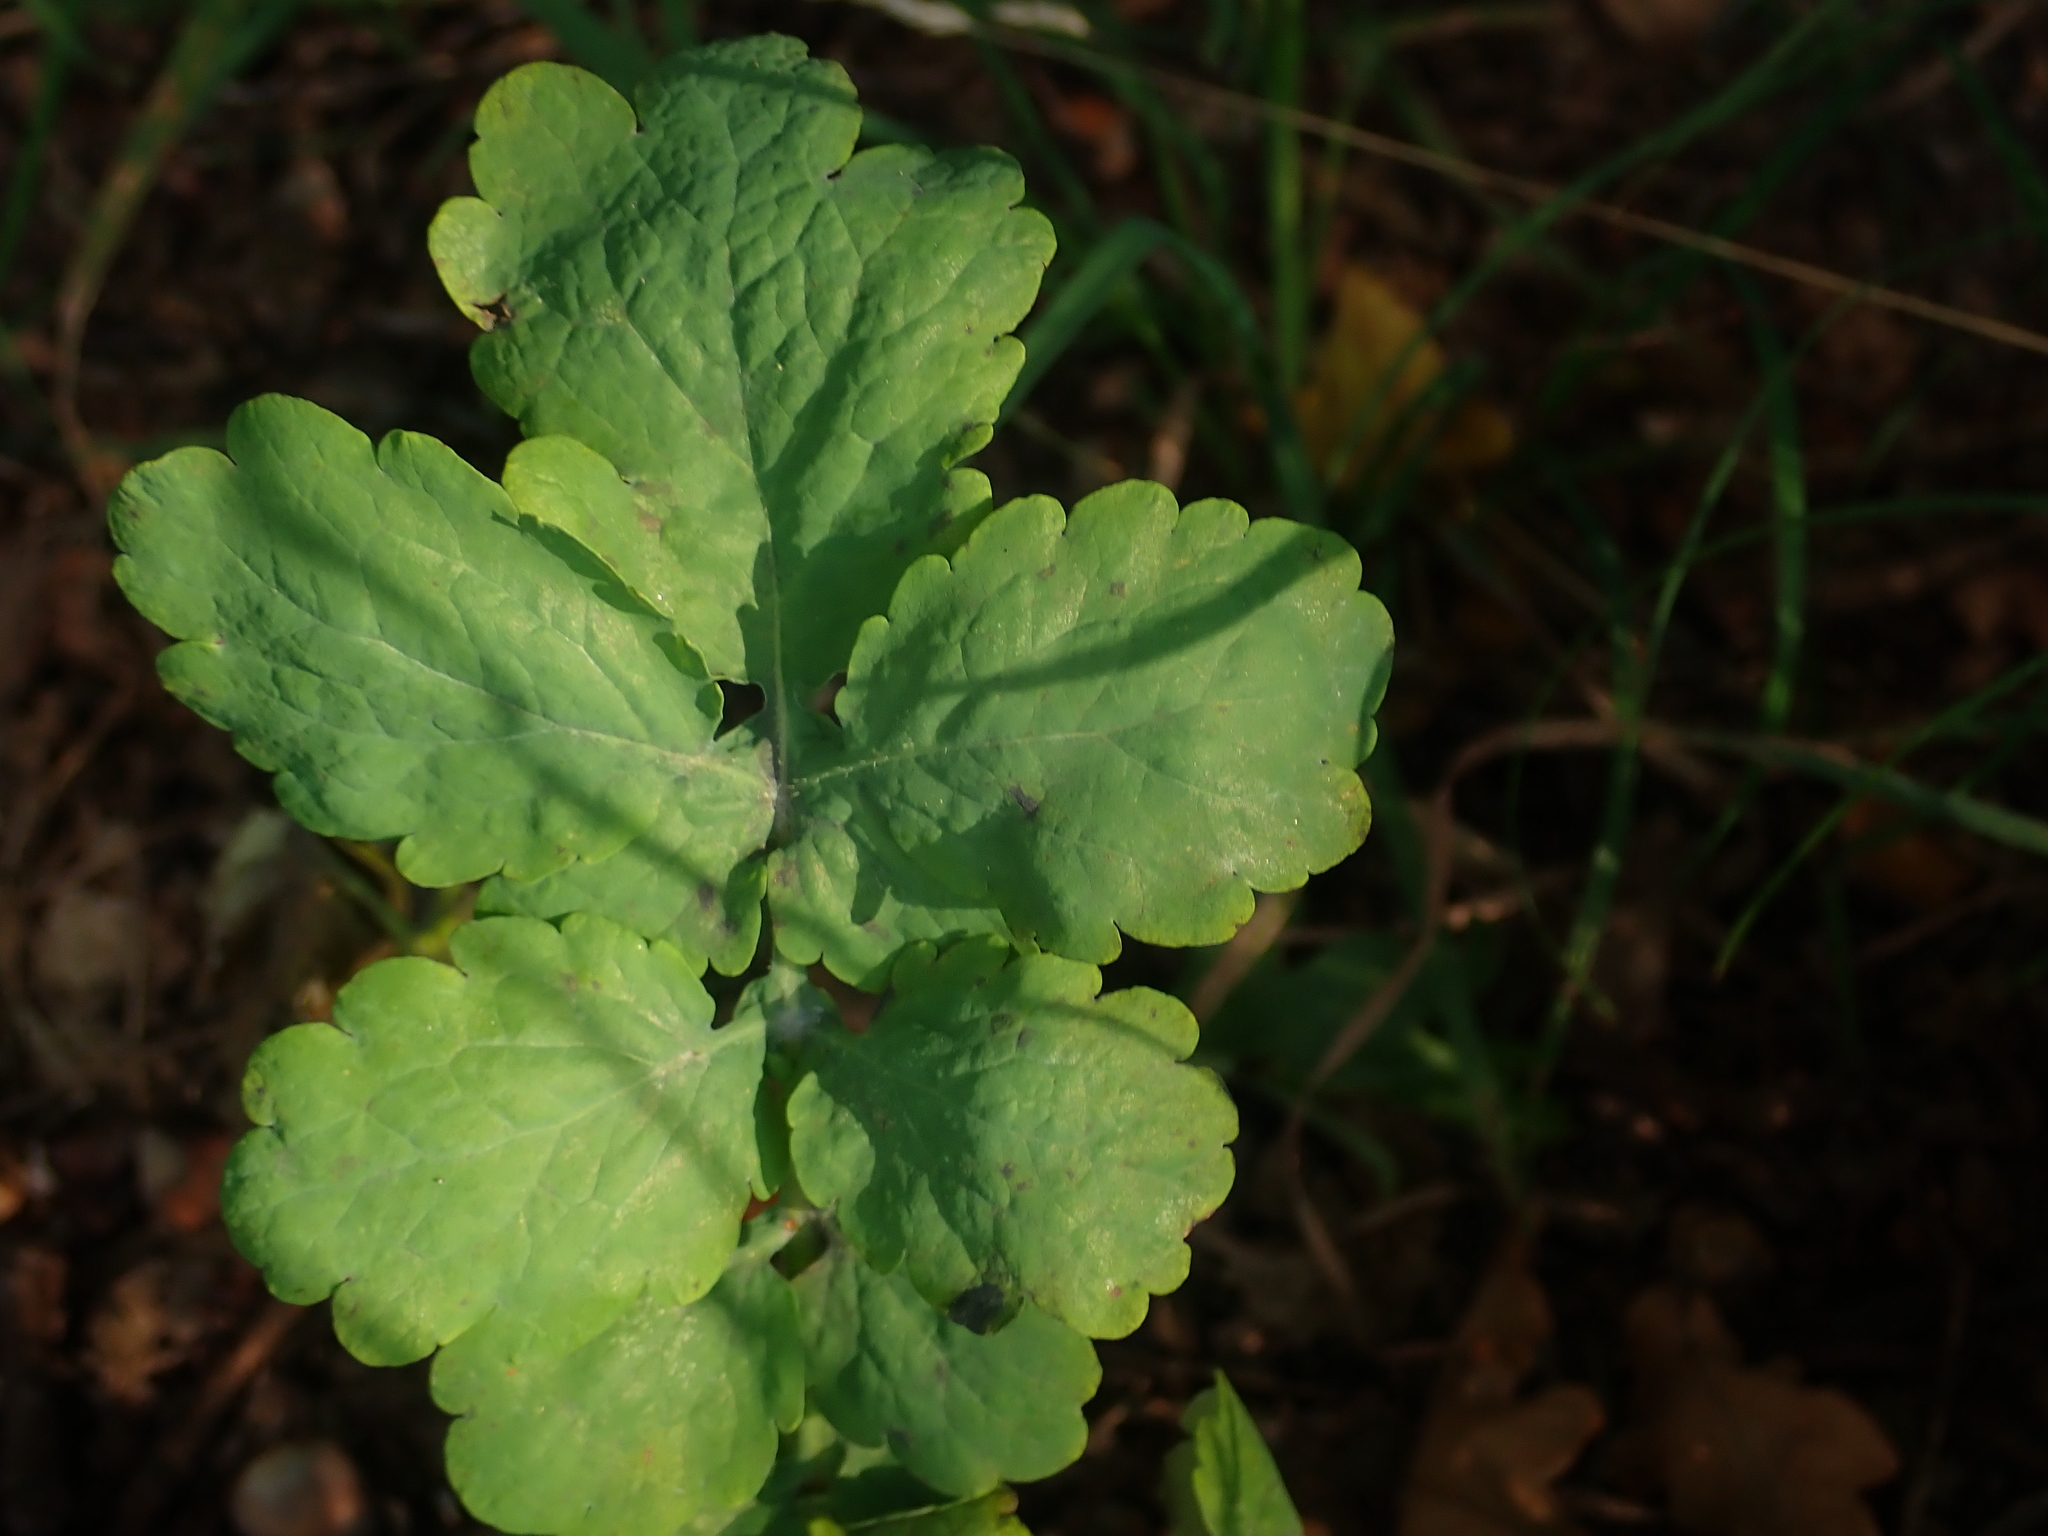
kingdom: Plantae
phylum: Tracheophyta
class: Magnoliopsida
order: Ranunculales
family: Papaveraceae
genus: Chelidonium
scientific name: Chelidonium majus
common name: Greater celandine
